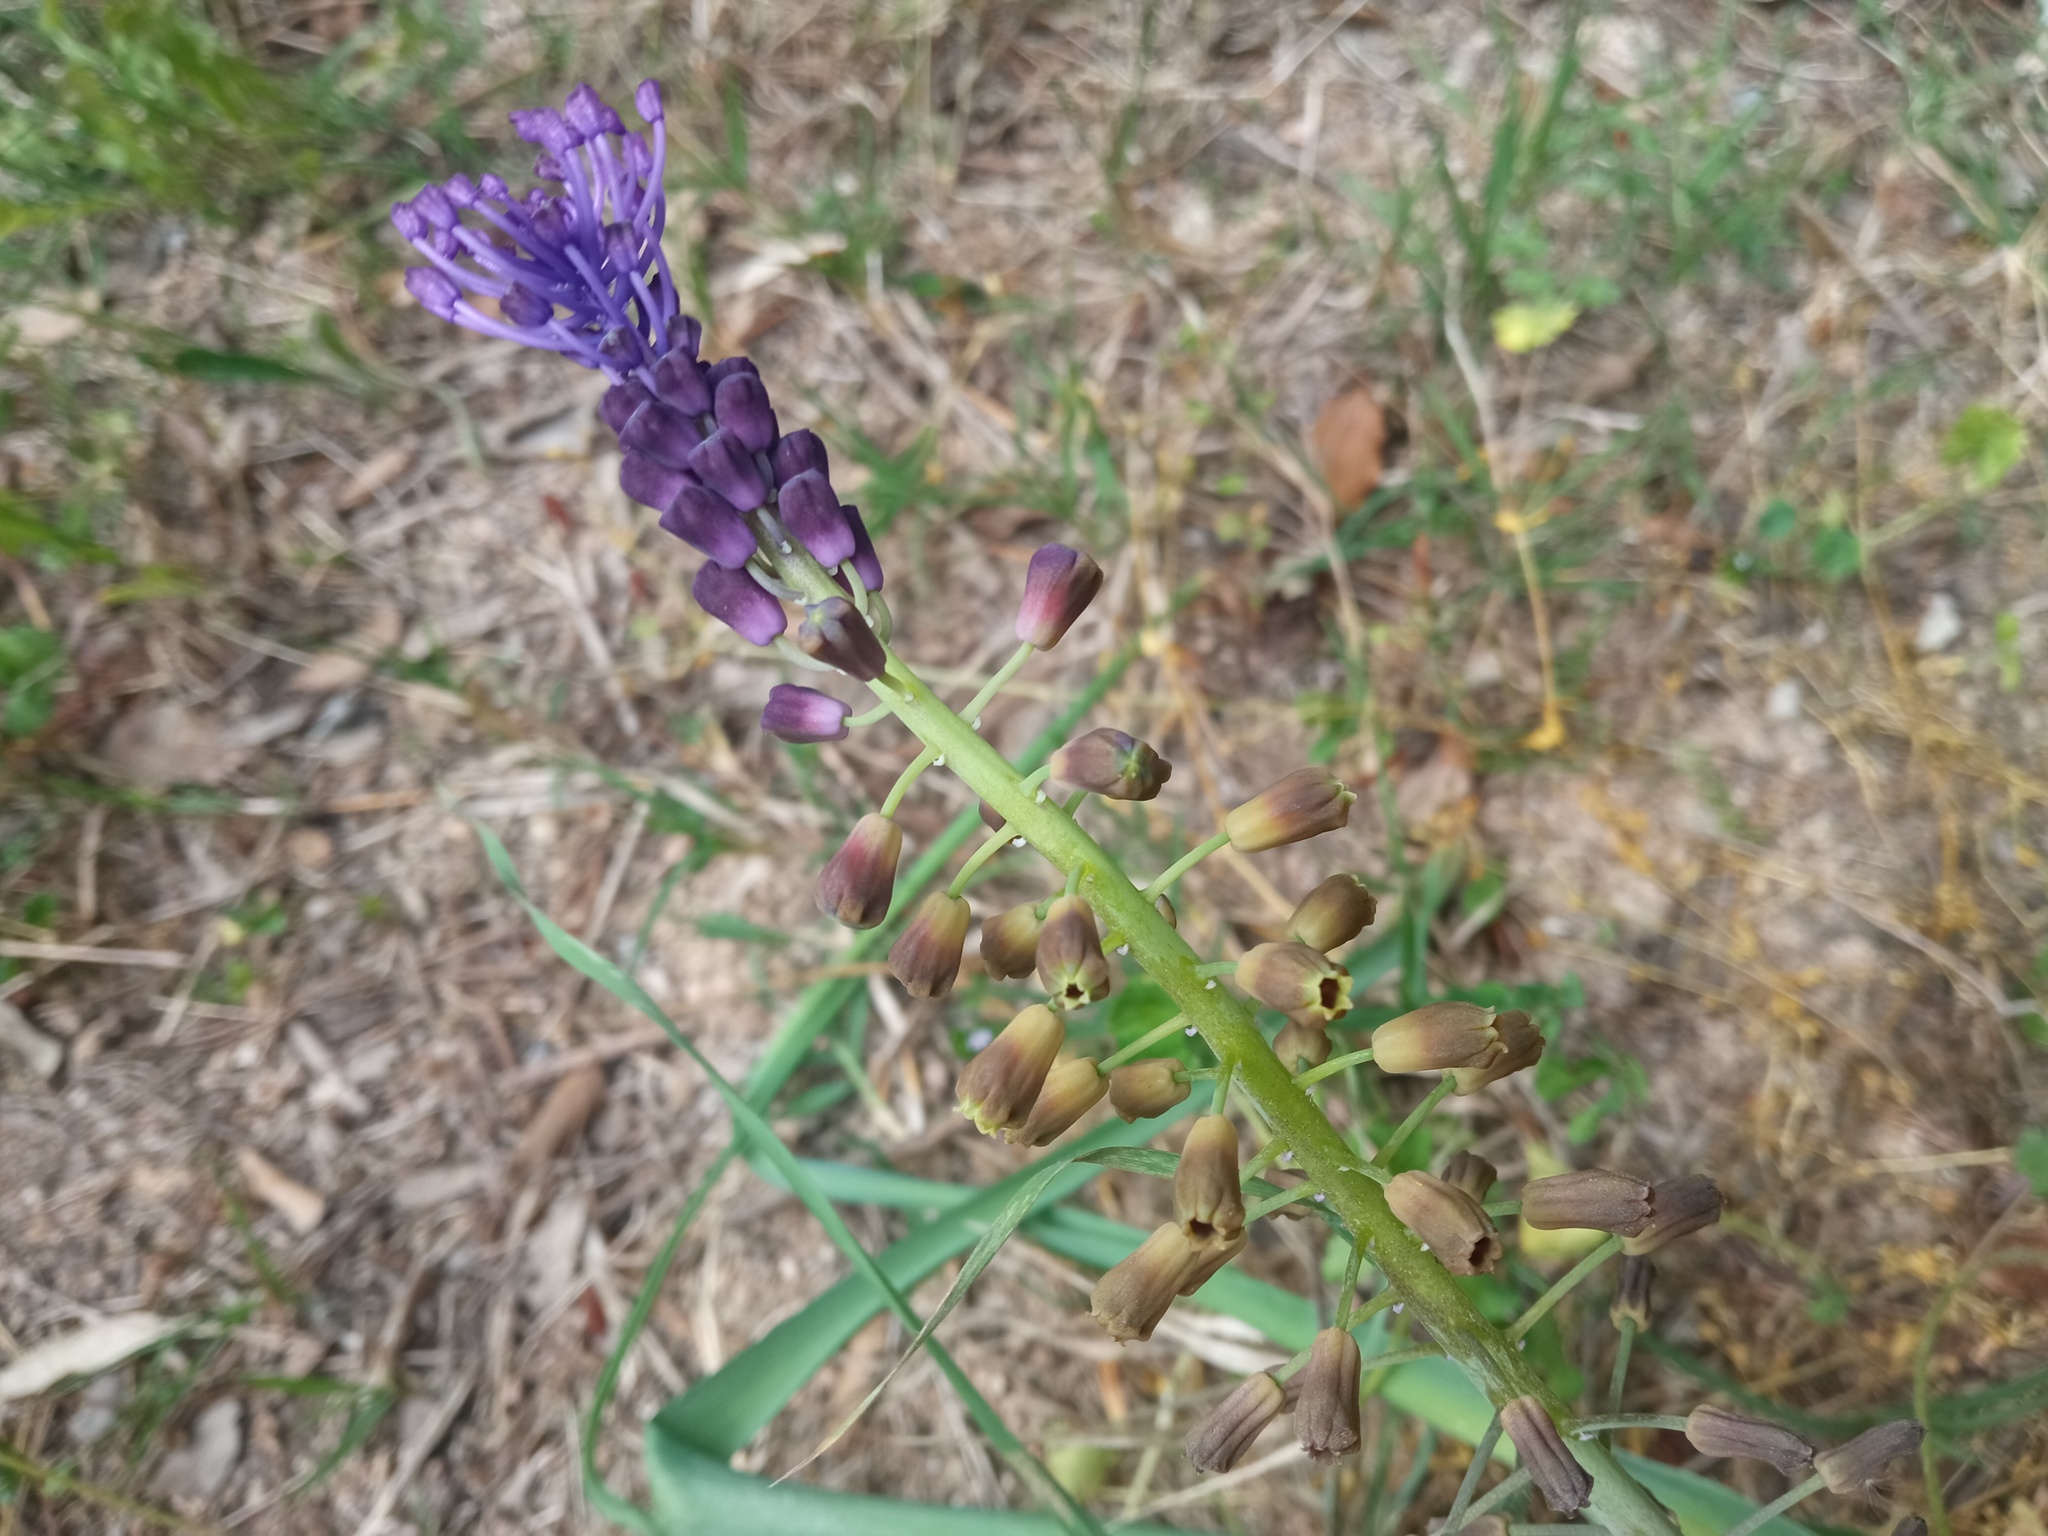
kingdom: Plantae
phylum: Tracheophyta
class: Liliopsida
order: Asparagales
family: Asparagaceae
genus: Muscari
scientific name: Muscari comosum
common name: Tassel hyacinth
